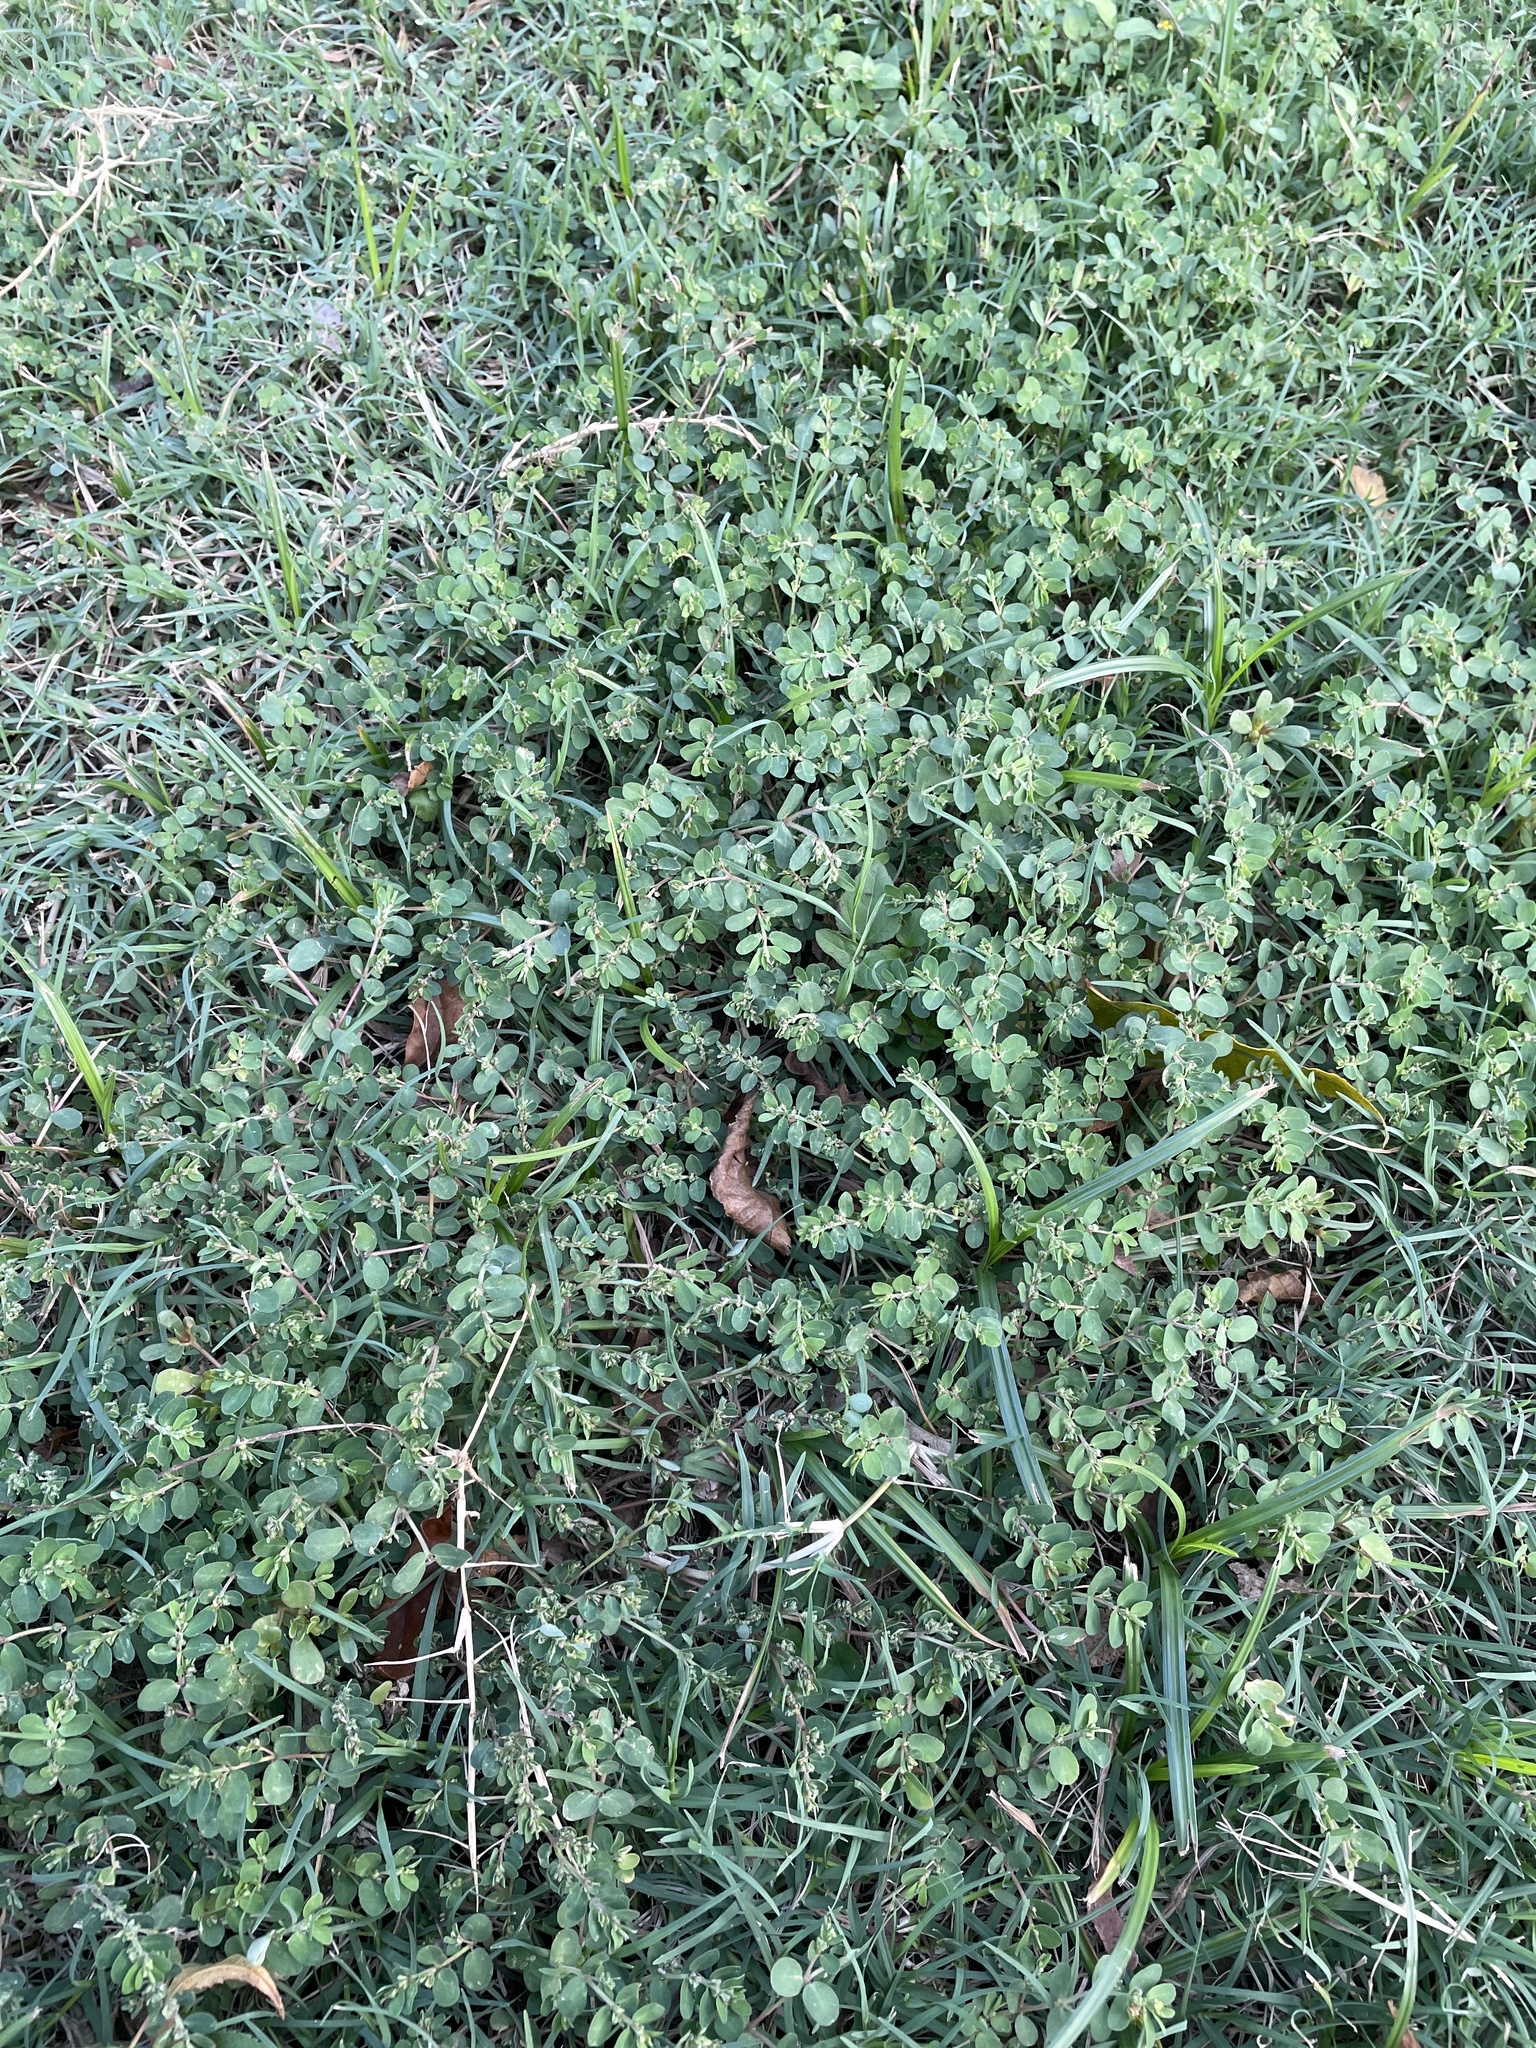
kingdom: Plantae
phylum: Tracheophyta
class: Magnoliopsida
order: Malpighiales
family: Euphorbiaceae
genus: Euphorbia
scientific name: Euphorbia prostrata
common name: Prostrate sandmat
